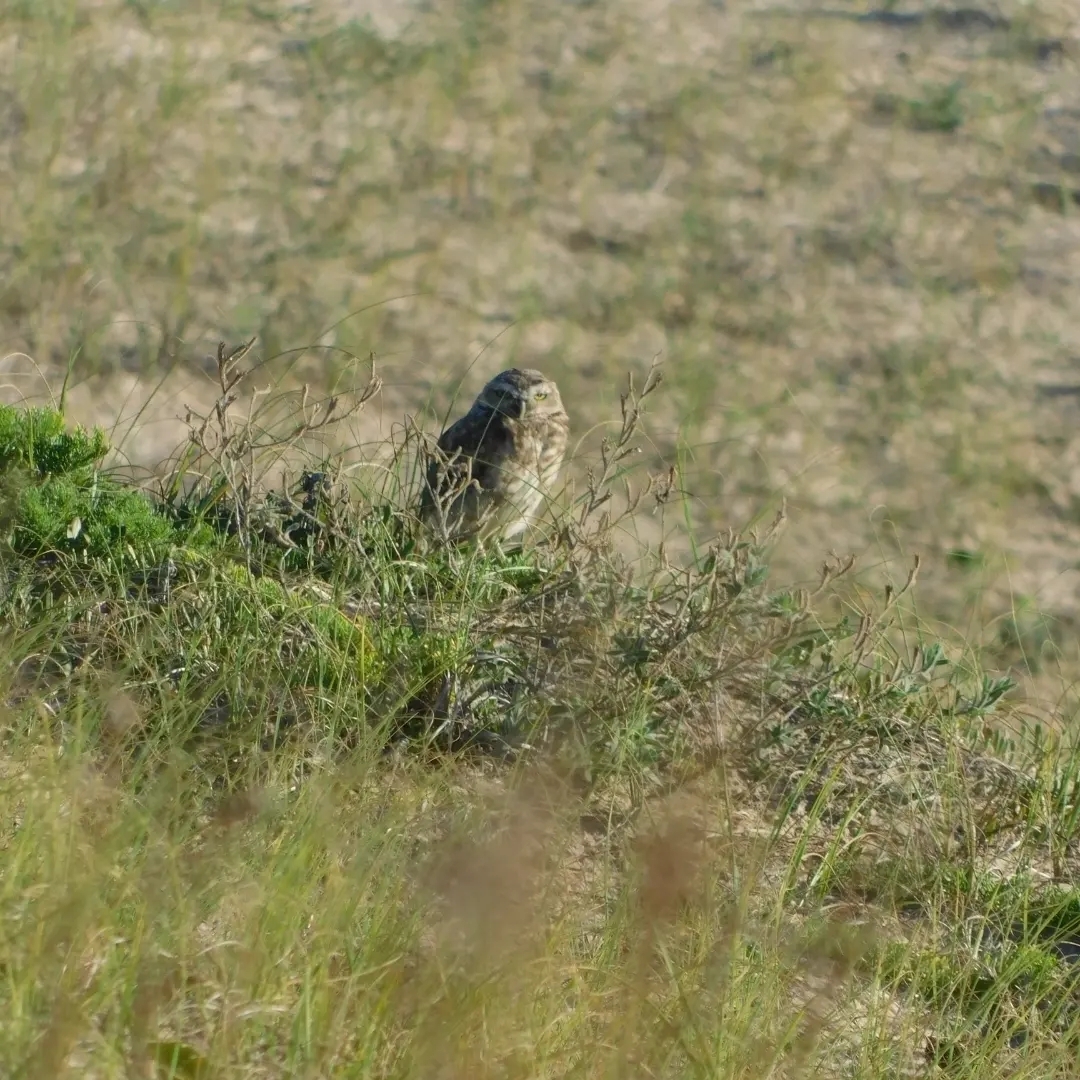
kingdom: Animalia
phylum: Chordata
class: Aves
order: Strigiformes
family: Strigidae
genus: Athene
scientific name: Athene cunicularia
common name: Burrowing owl
